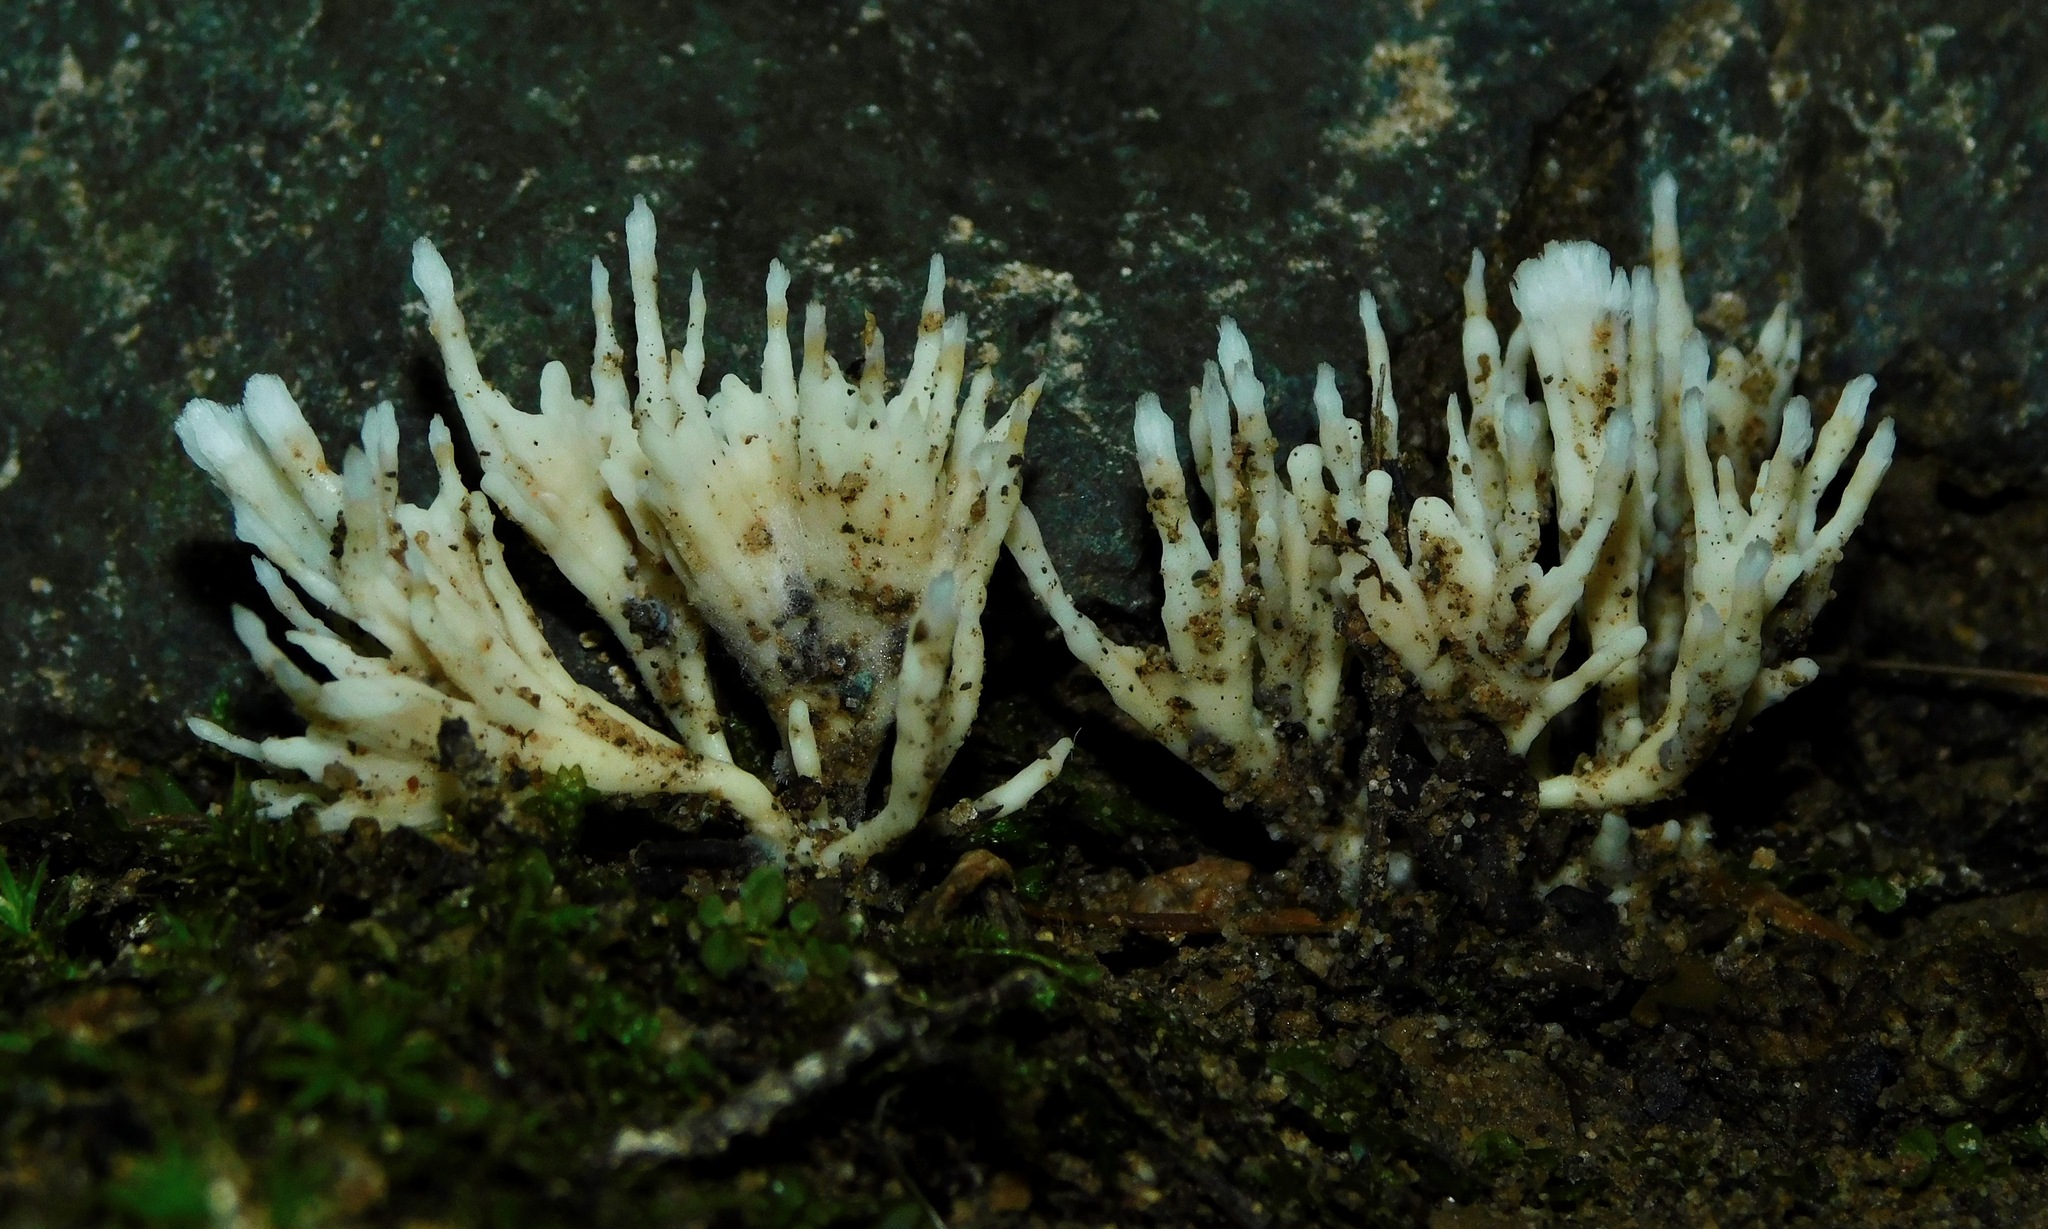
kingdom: Fungi
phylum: Basidiomycota
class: Agaricomycetes
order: Sebacinales
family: Sebacinaceae
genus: Sebacina
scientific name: Sebacina schweinitzii
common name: Jellied false coral fungus
